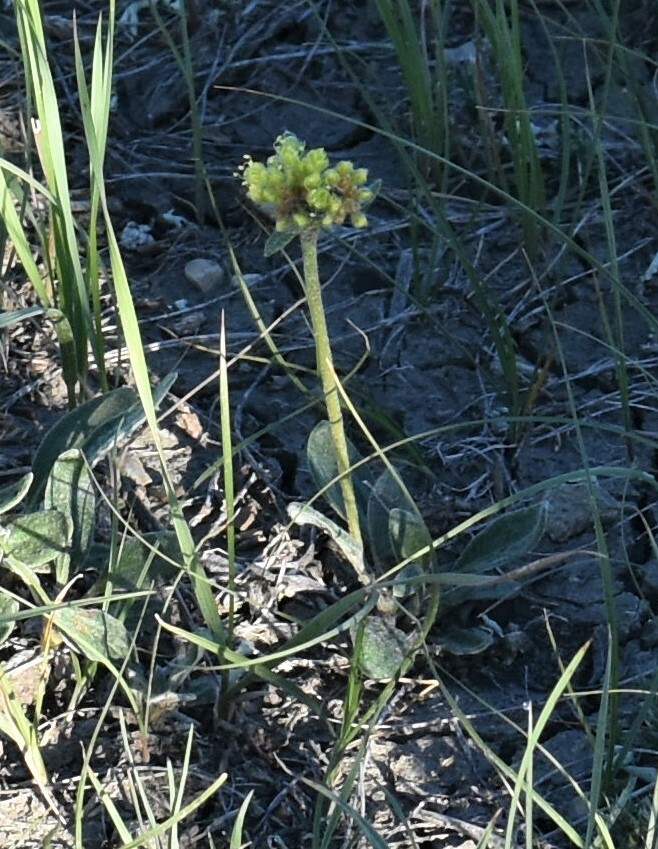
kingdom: Plantae
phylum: Tracheophyta
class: Magnoliopsida
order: Caryophyllales
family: Polygonaceae
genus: Eriogonum
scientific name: Eriogonum flavum
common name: Alpine golden wild buckwheat
